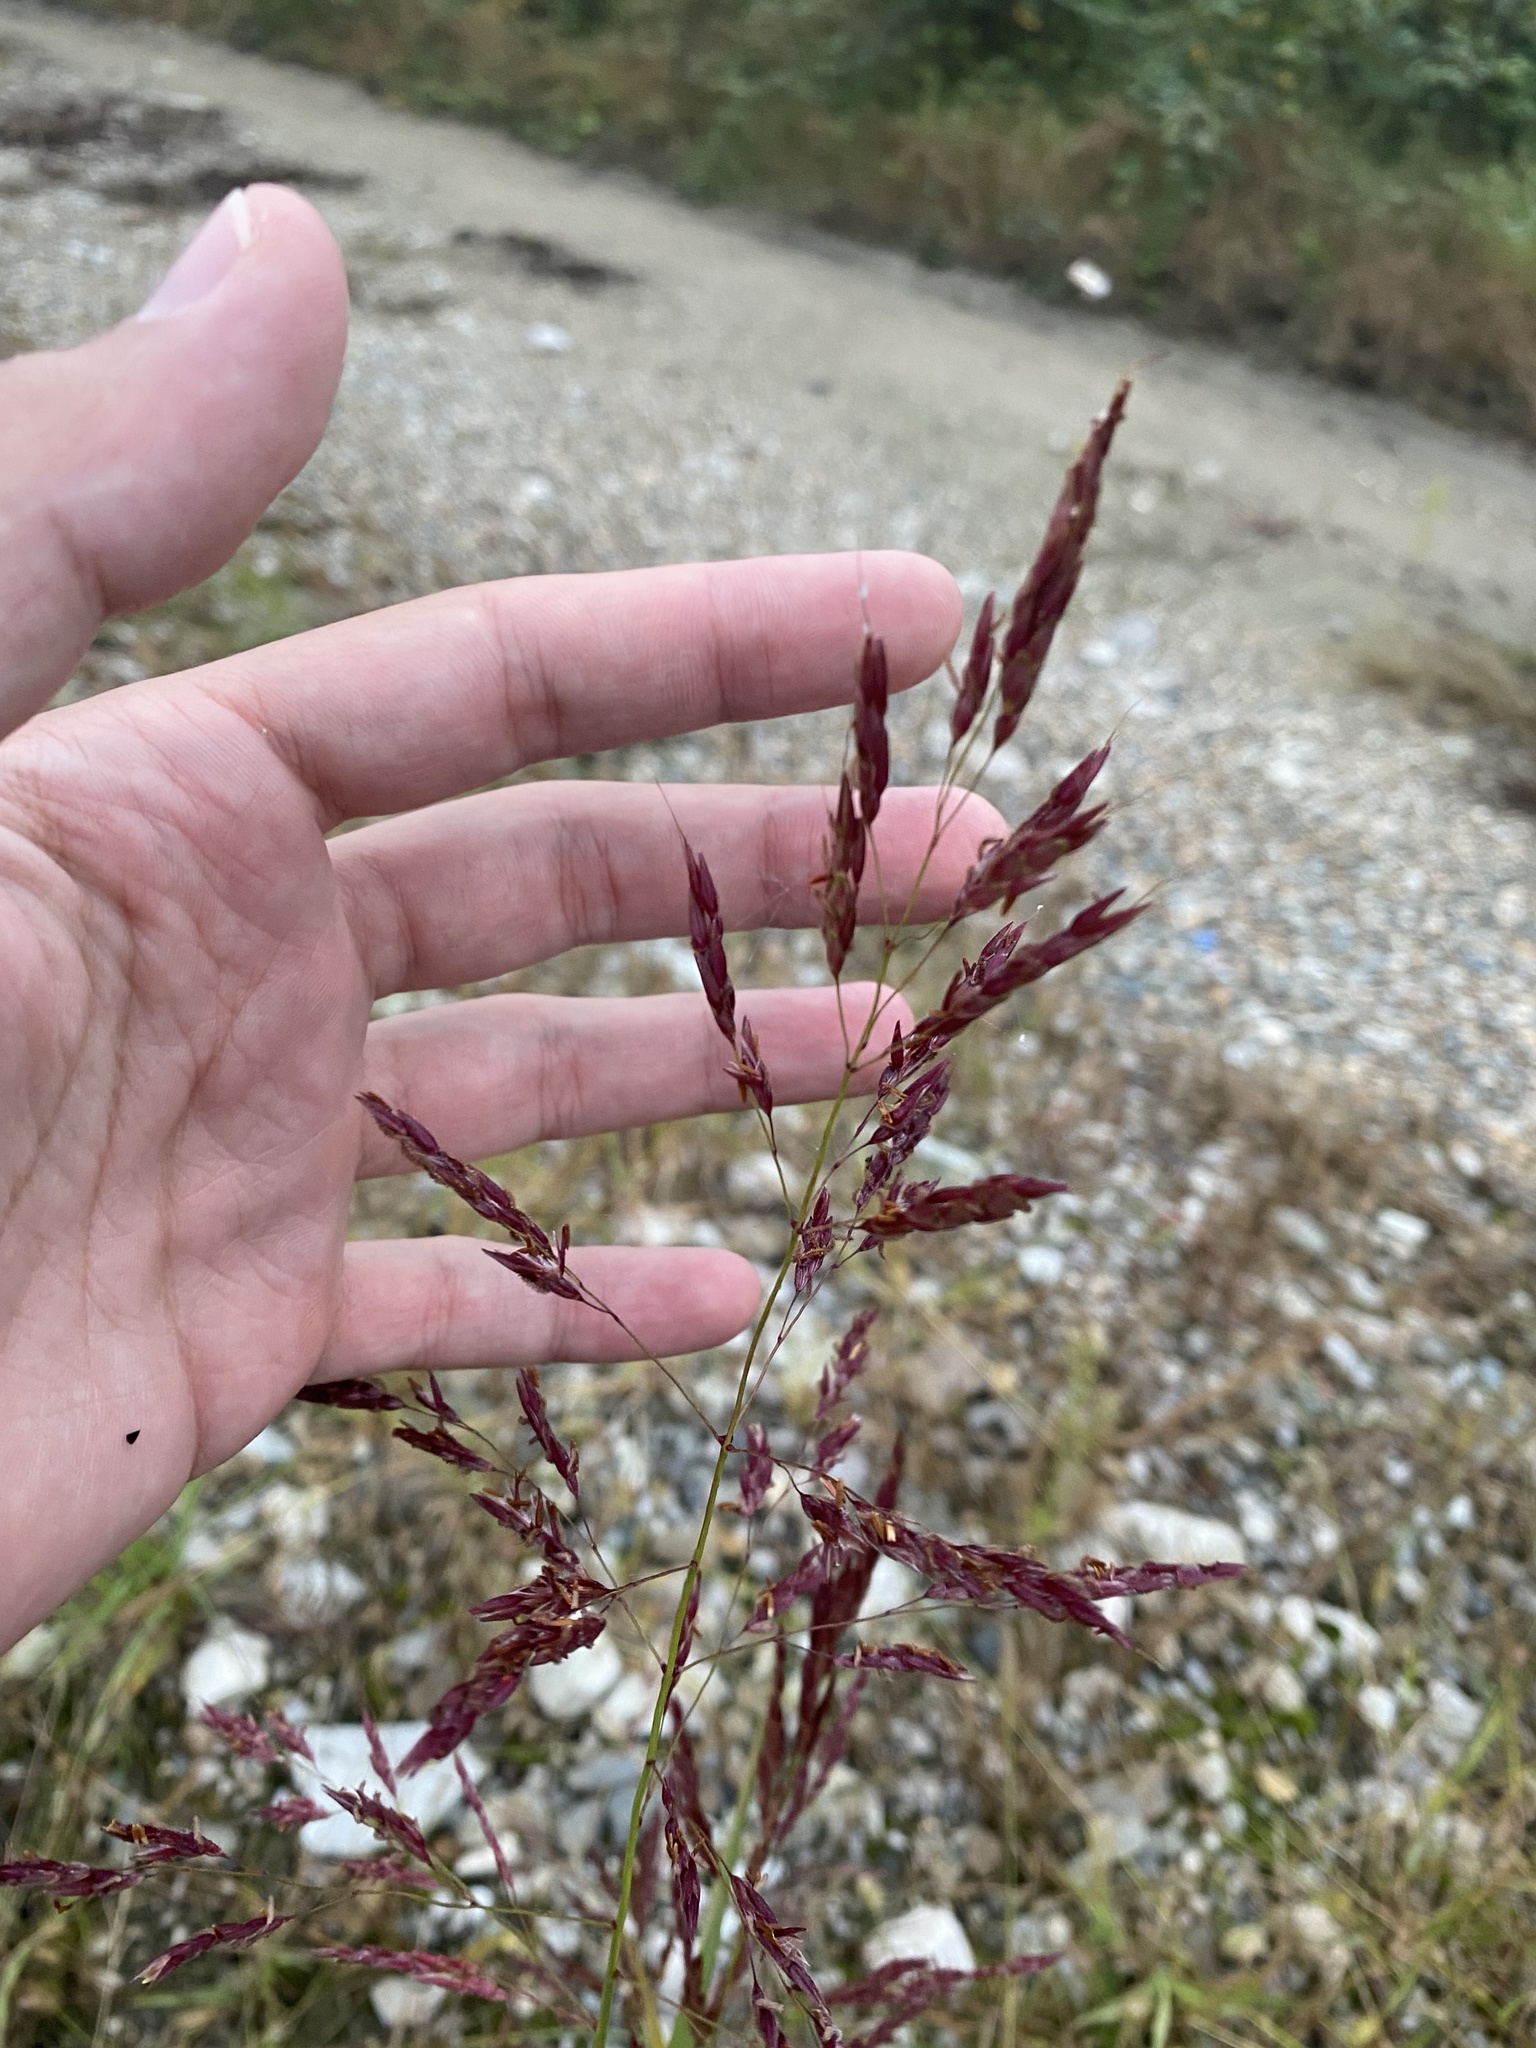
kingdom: Plantae
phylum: Tracheophyta
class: Liliopsida
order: Poales
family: Poaceae
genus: Sorghum
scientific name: Sorghum halepense
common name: Johnson-grass
